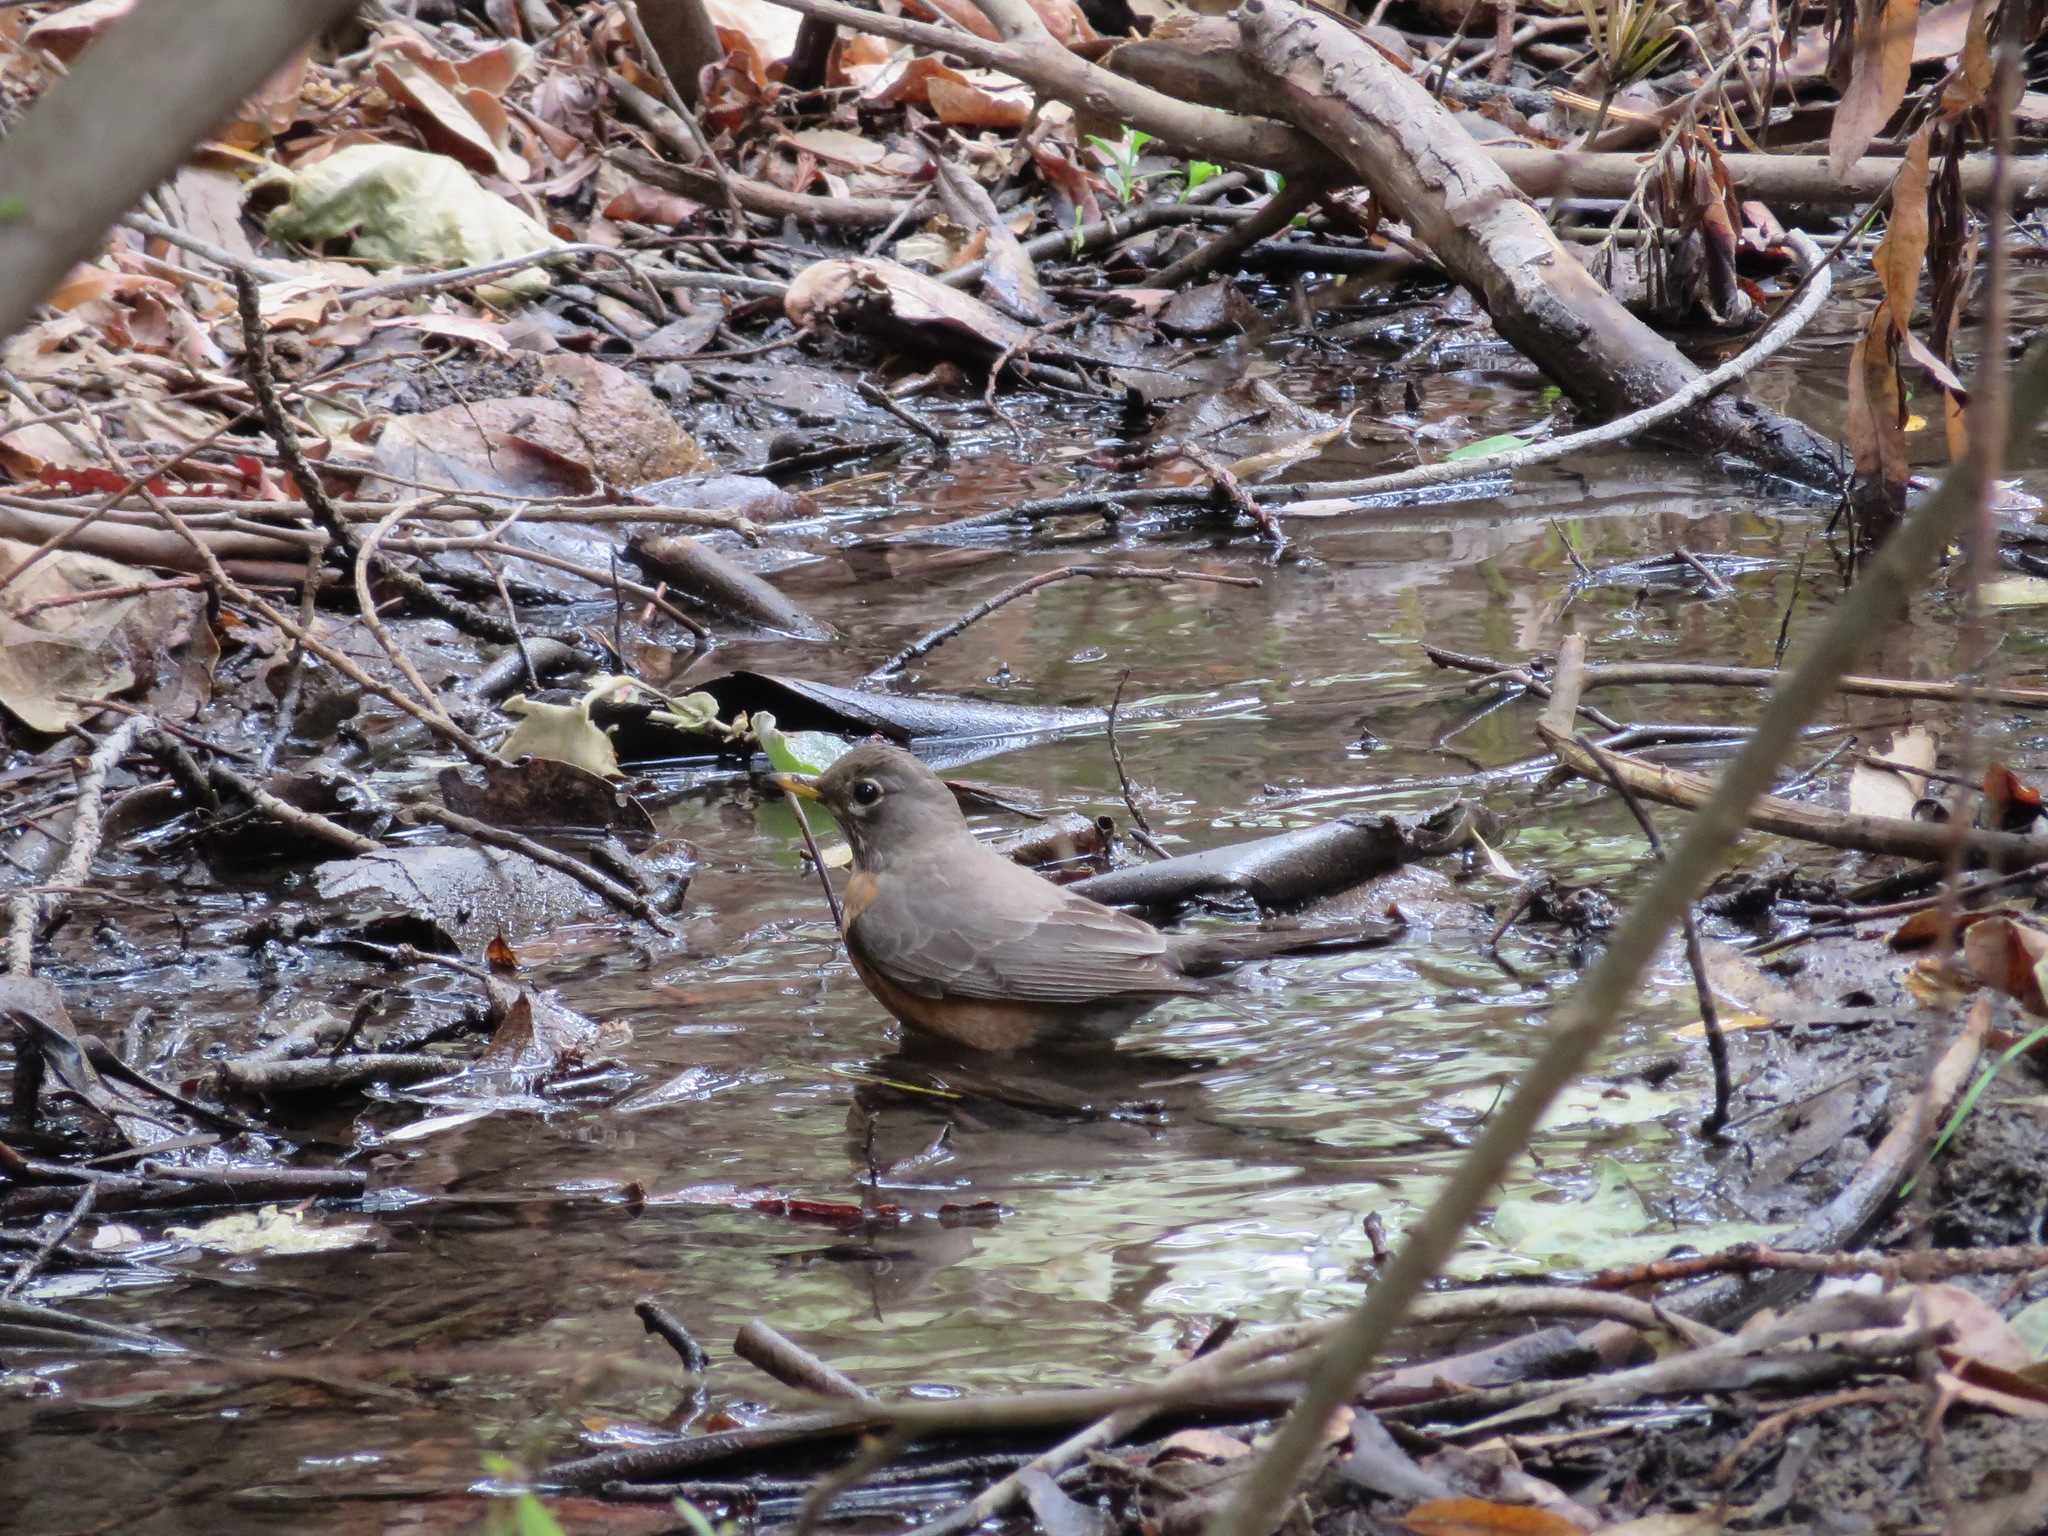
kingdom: Animalia
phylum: Chordata
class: Aves
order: Passeriformes
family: Turdidae
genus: Turdus
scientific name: Turdus migratorius
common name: American robin
